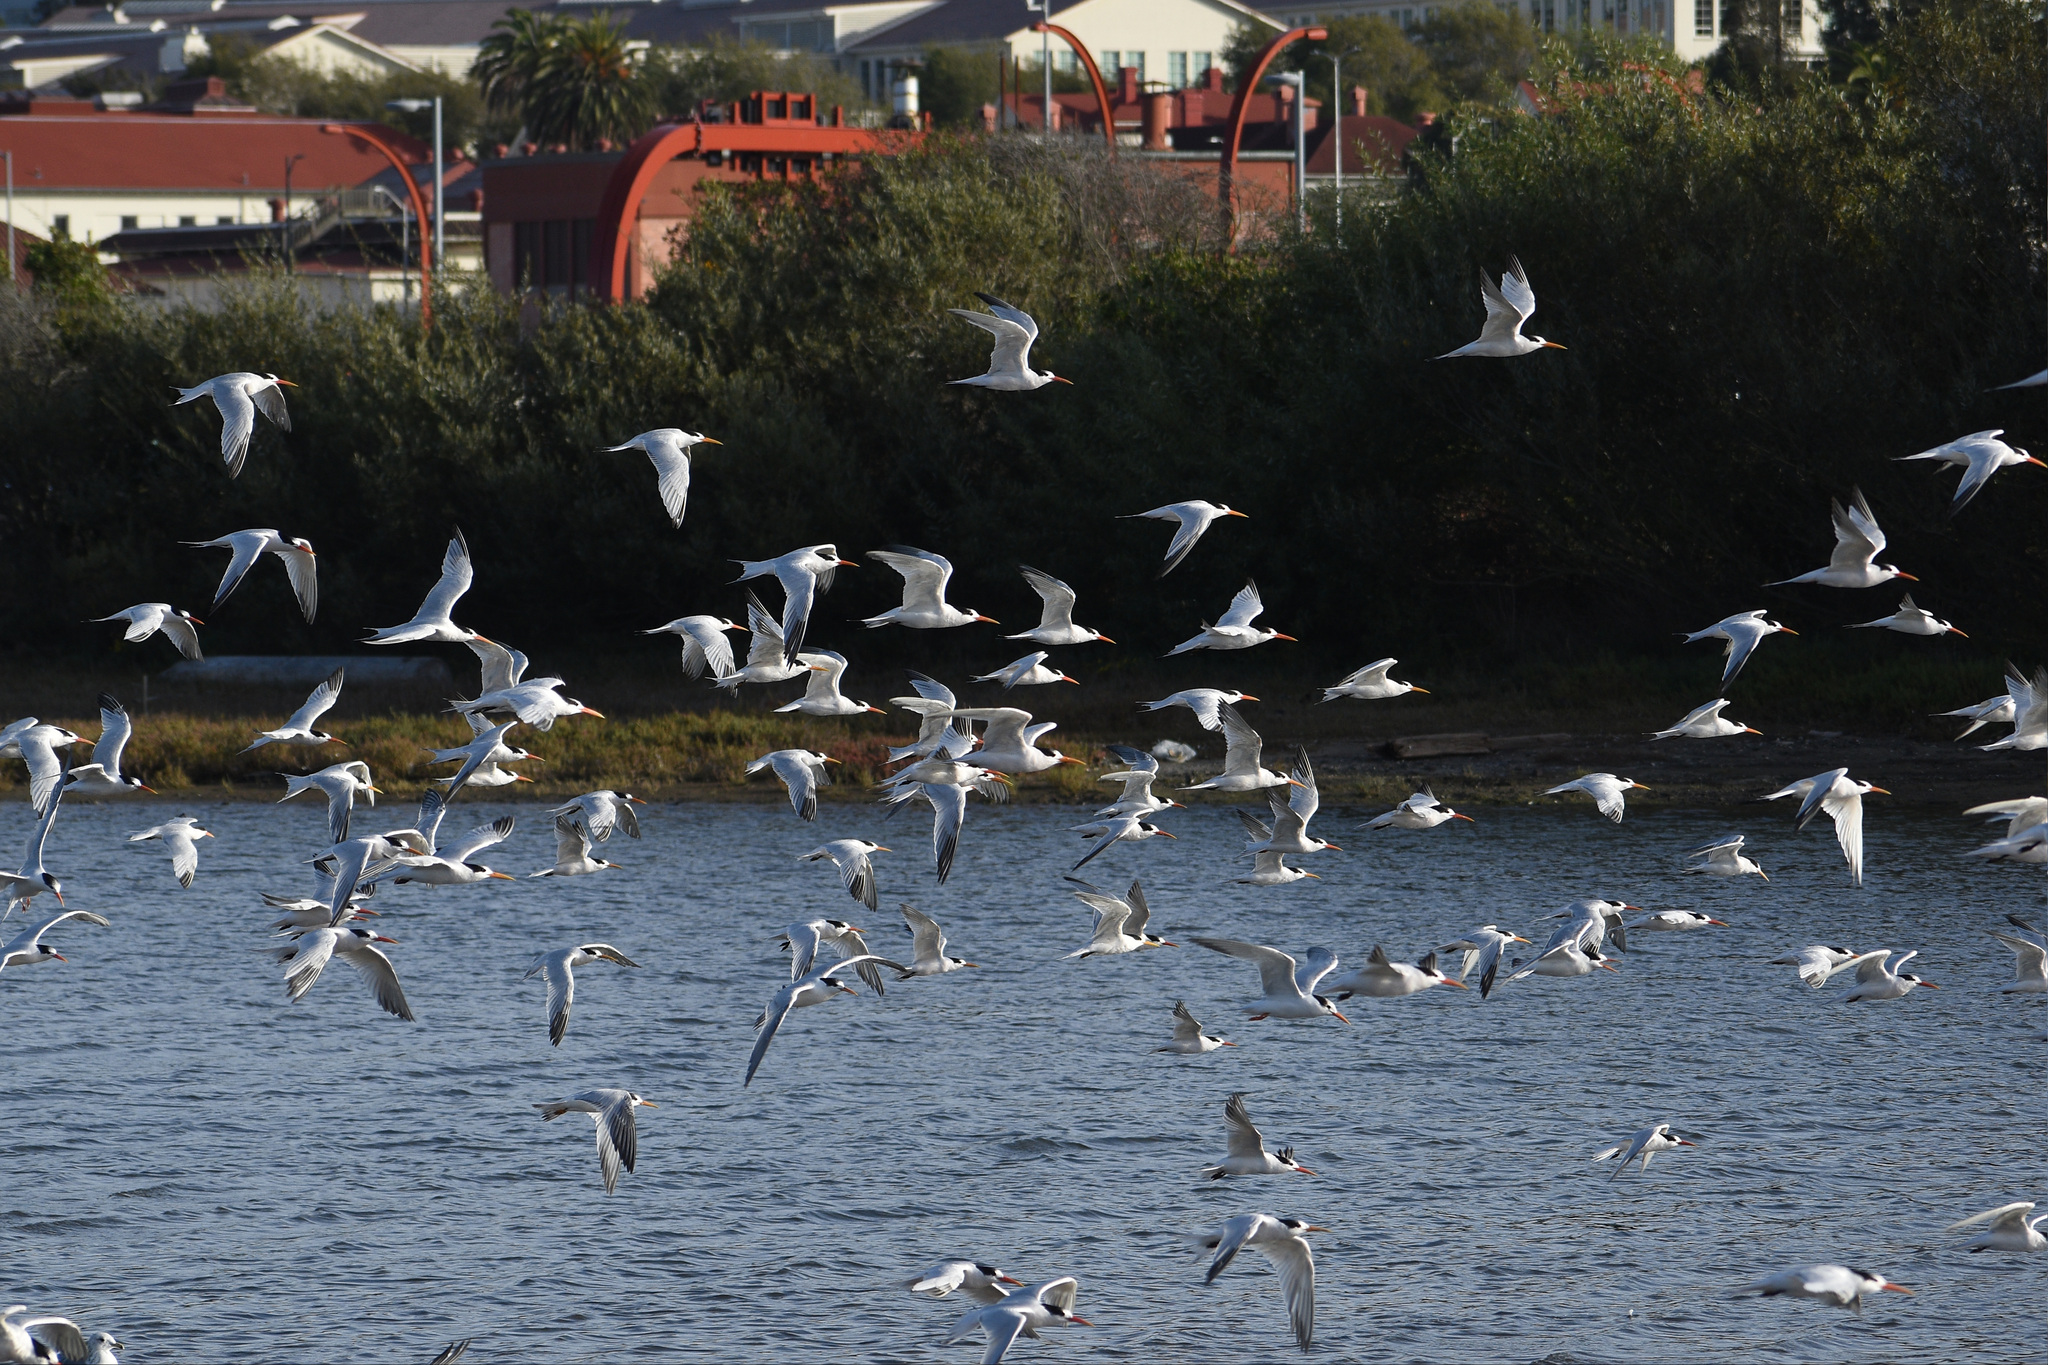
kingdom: Animalia
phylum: Chordata
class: Aves
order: Charadriiformes
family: Laridae
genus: Thalasseus
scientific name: Thalasseus elegans
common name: Elegant tern
